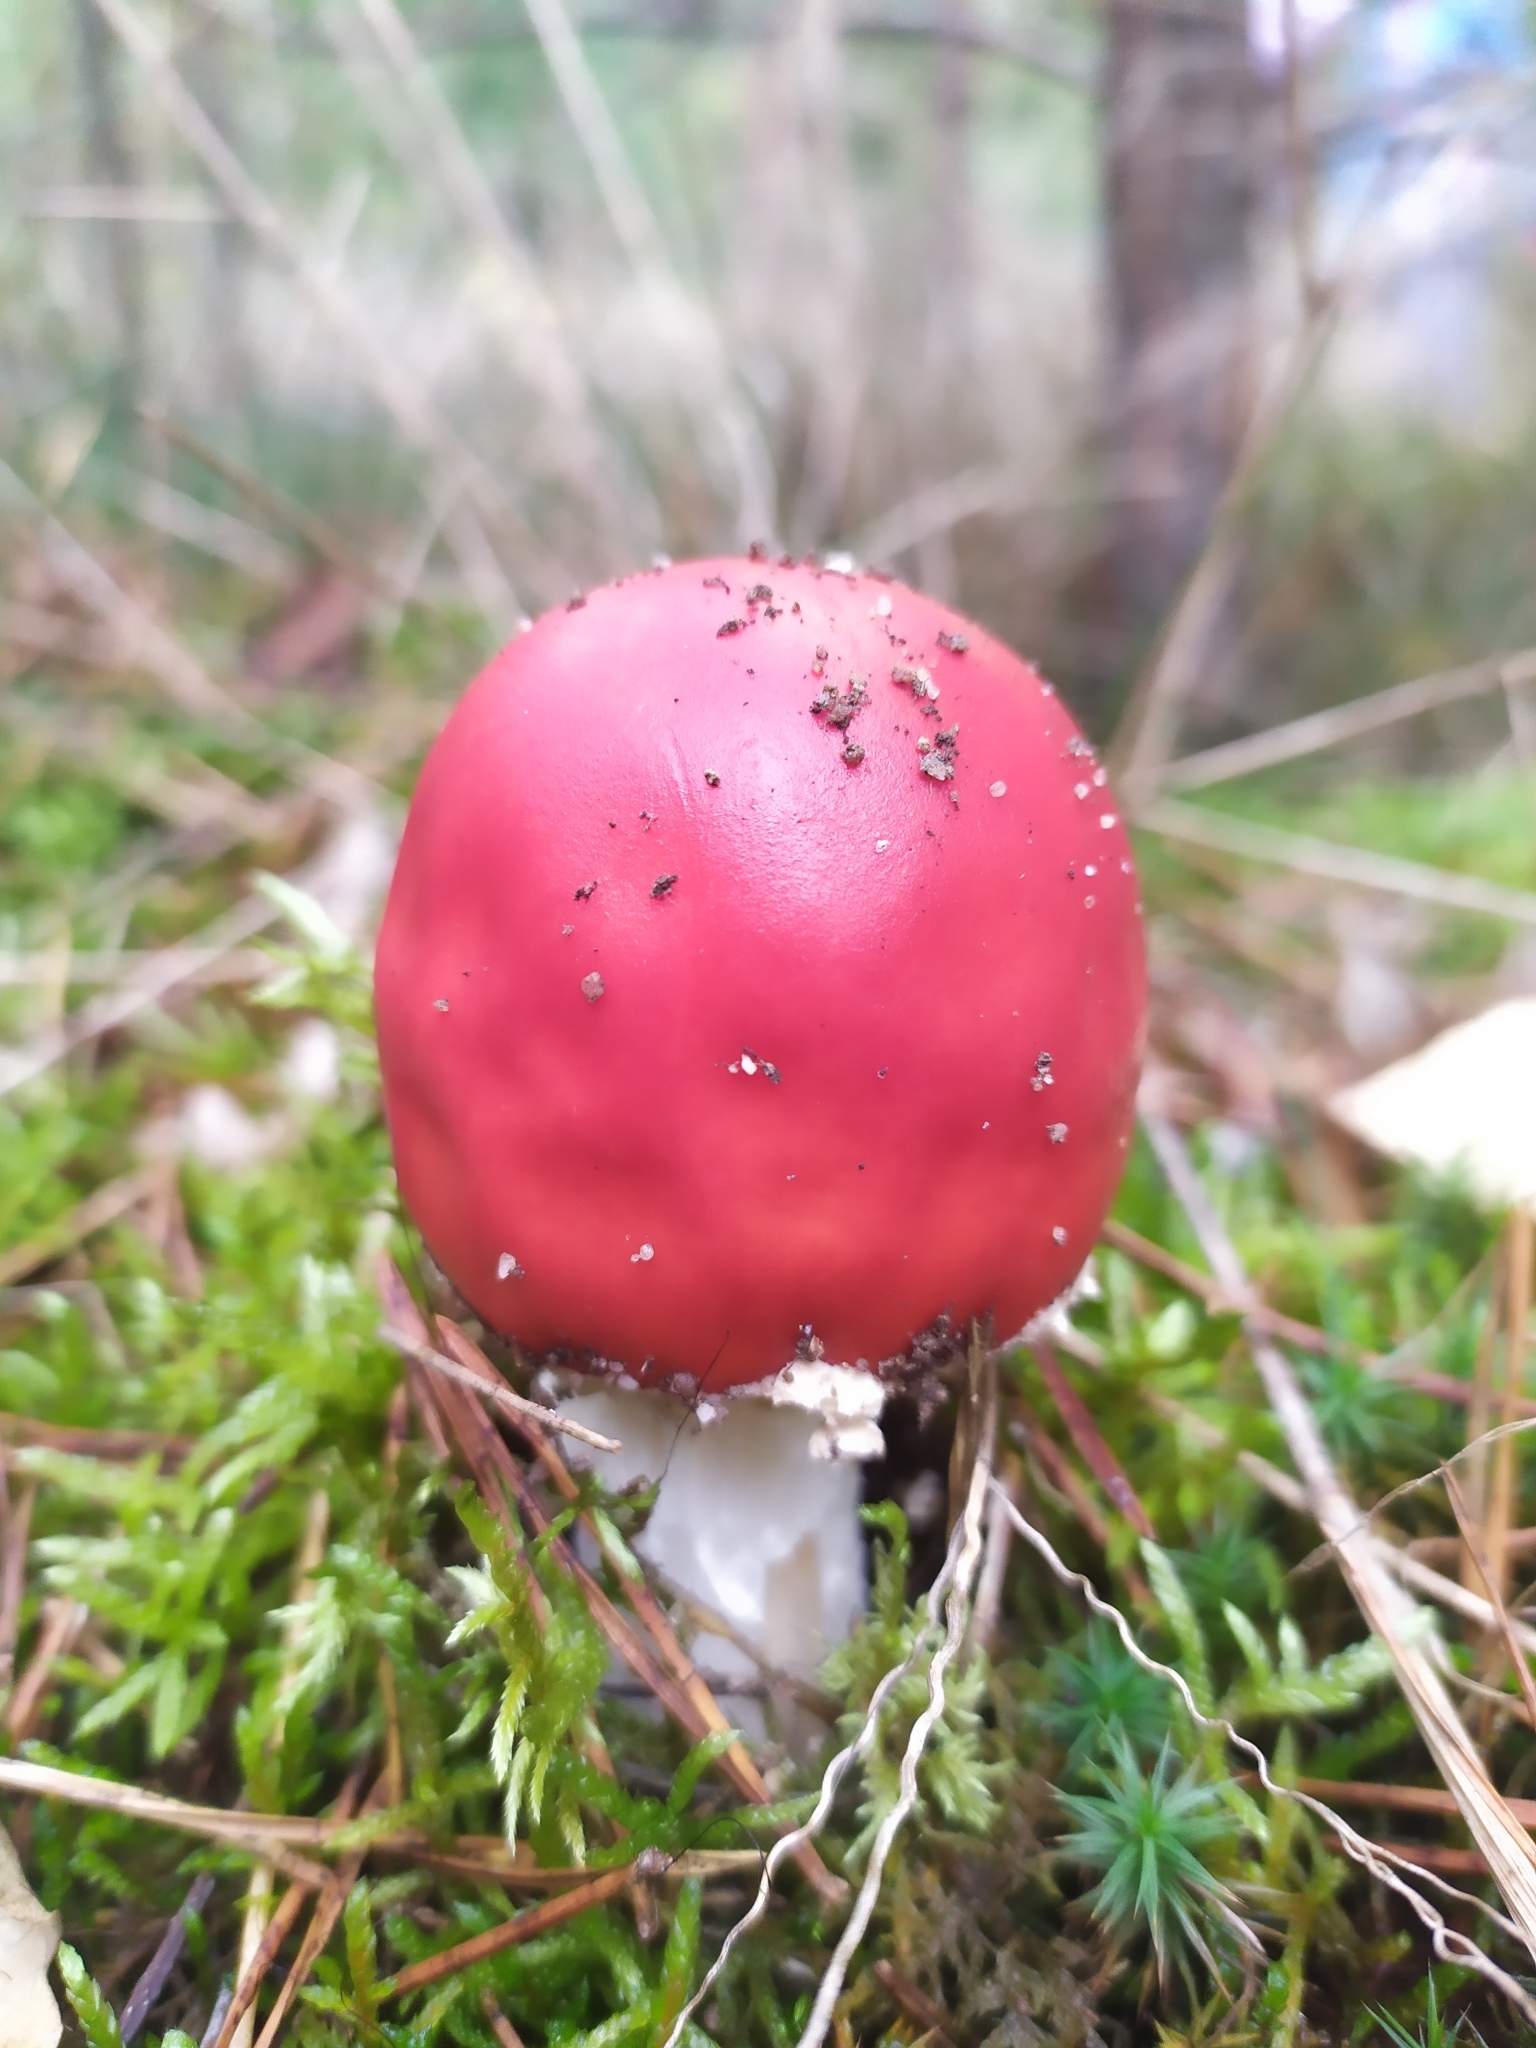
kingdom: Fungi
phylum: Basidiomycota
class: Agaricomycetes
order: Agaricales
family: Amanitaceae
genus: Amanita
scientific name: Amanita muscaria
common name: Fly agaric
